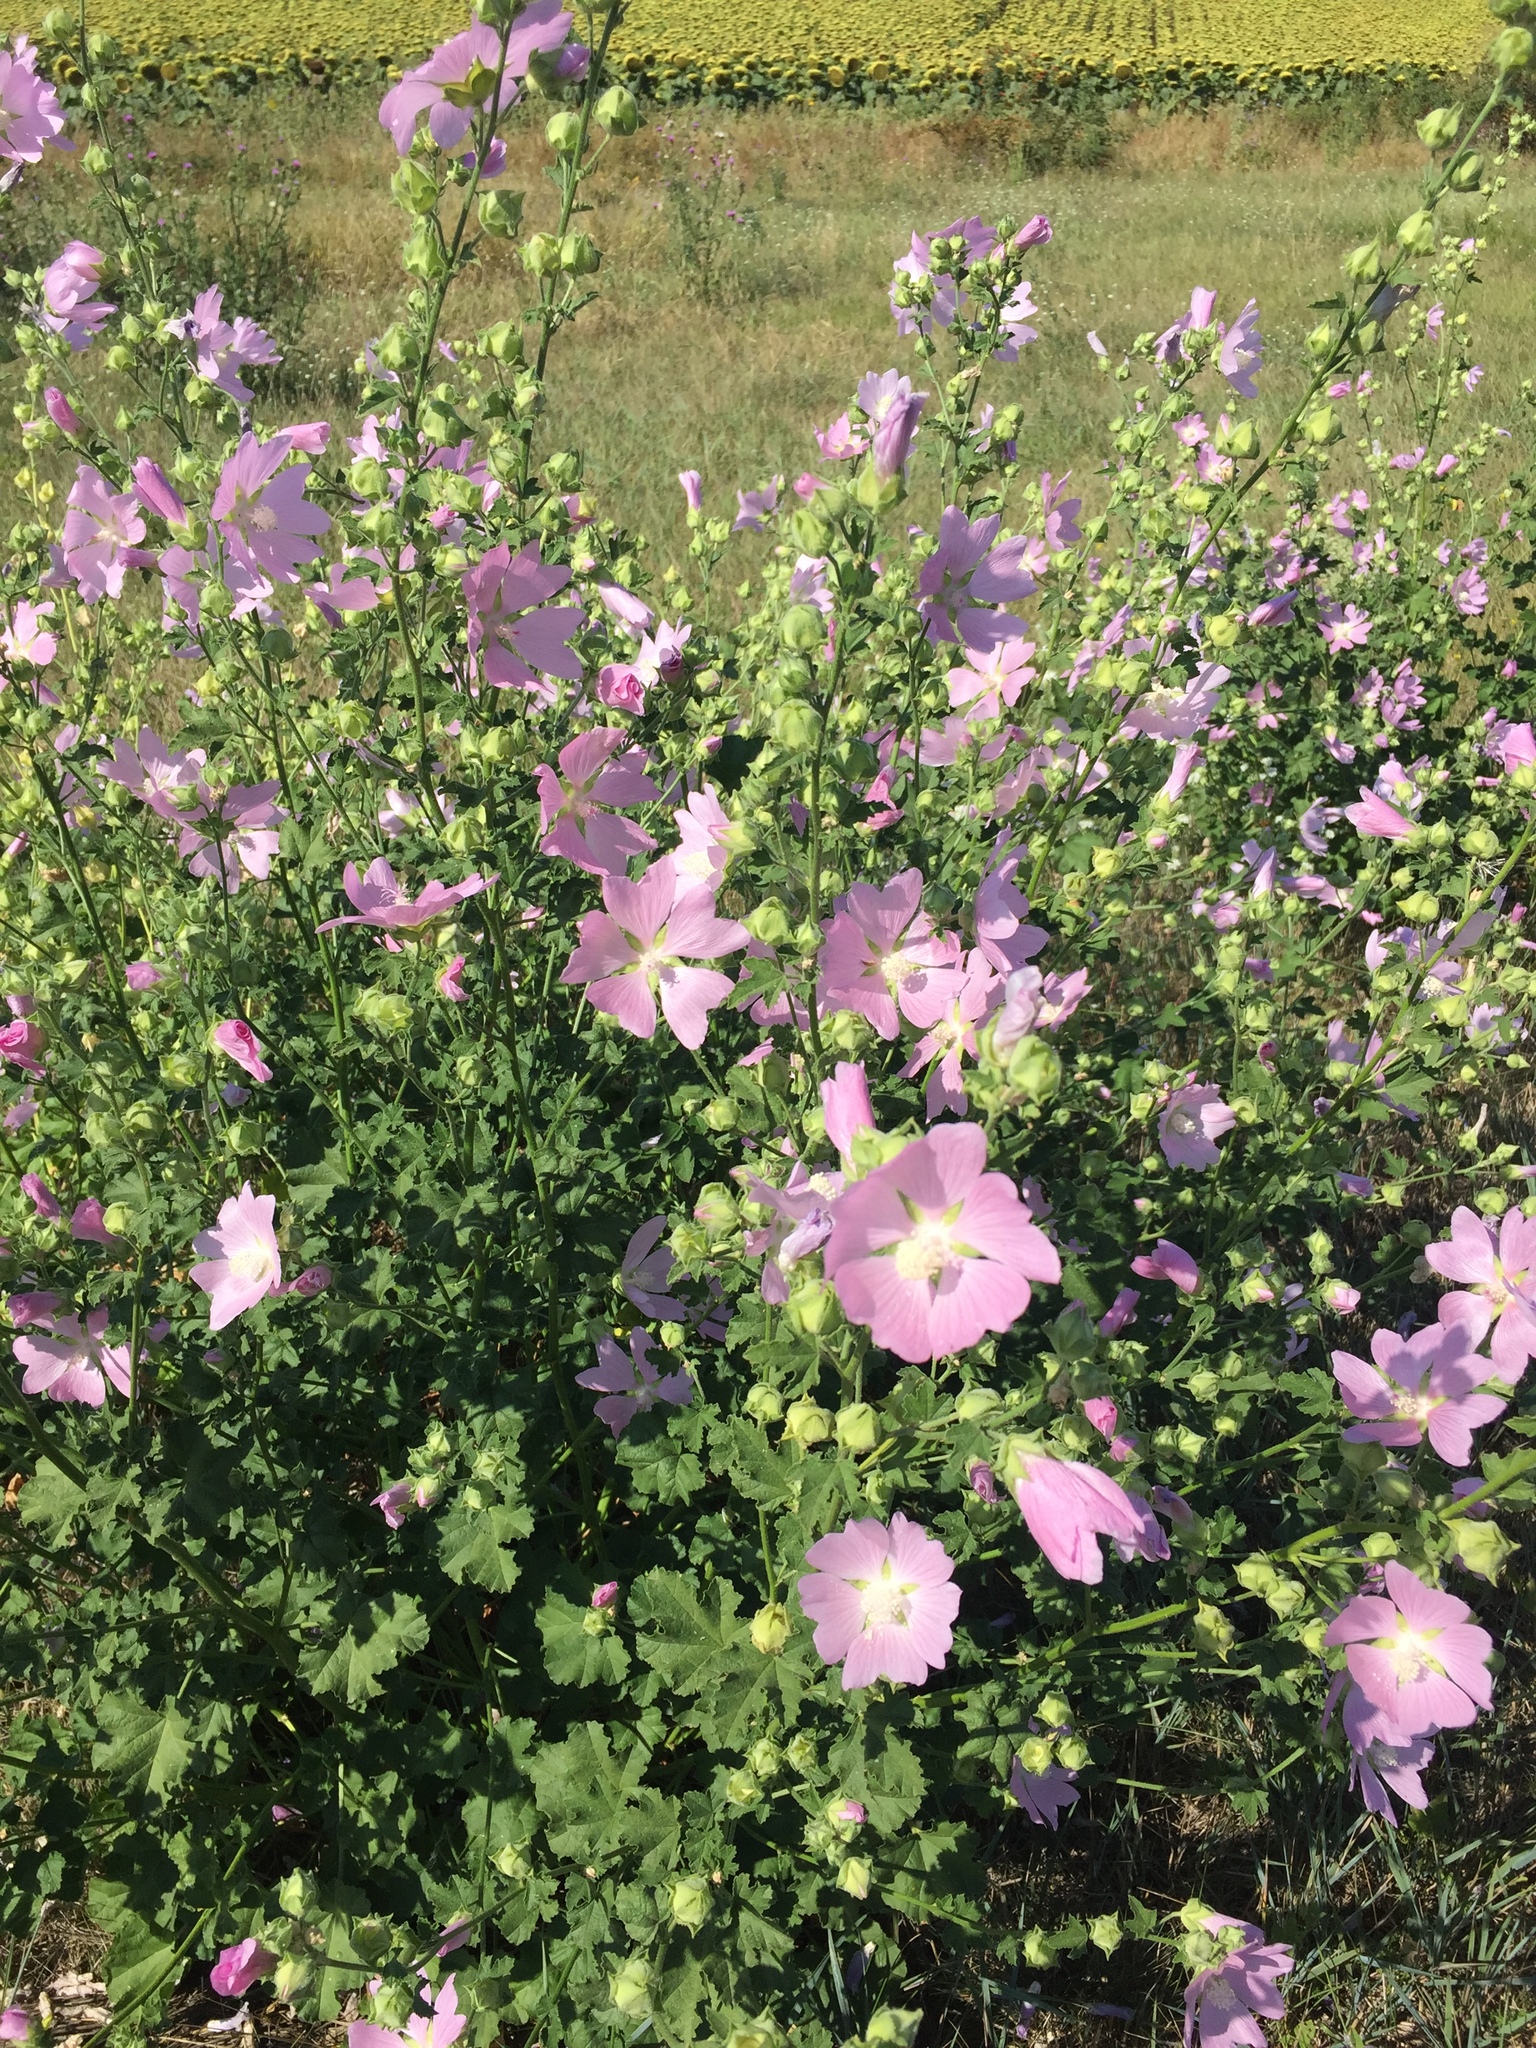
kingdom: Plantae
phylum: Tracheophyta
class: Magnoliopsida
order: Malvales
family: Malvaceae
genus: Malva
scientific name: Malva thuringiaca
